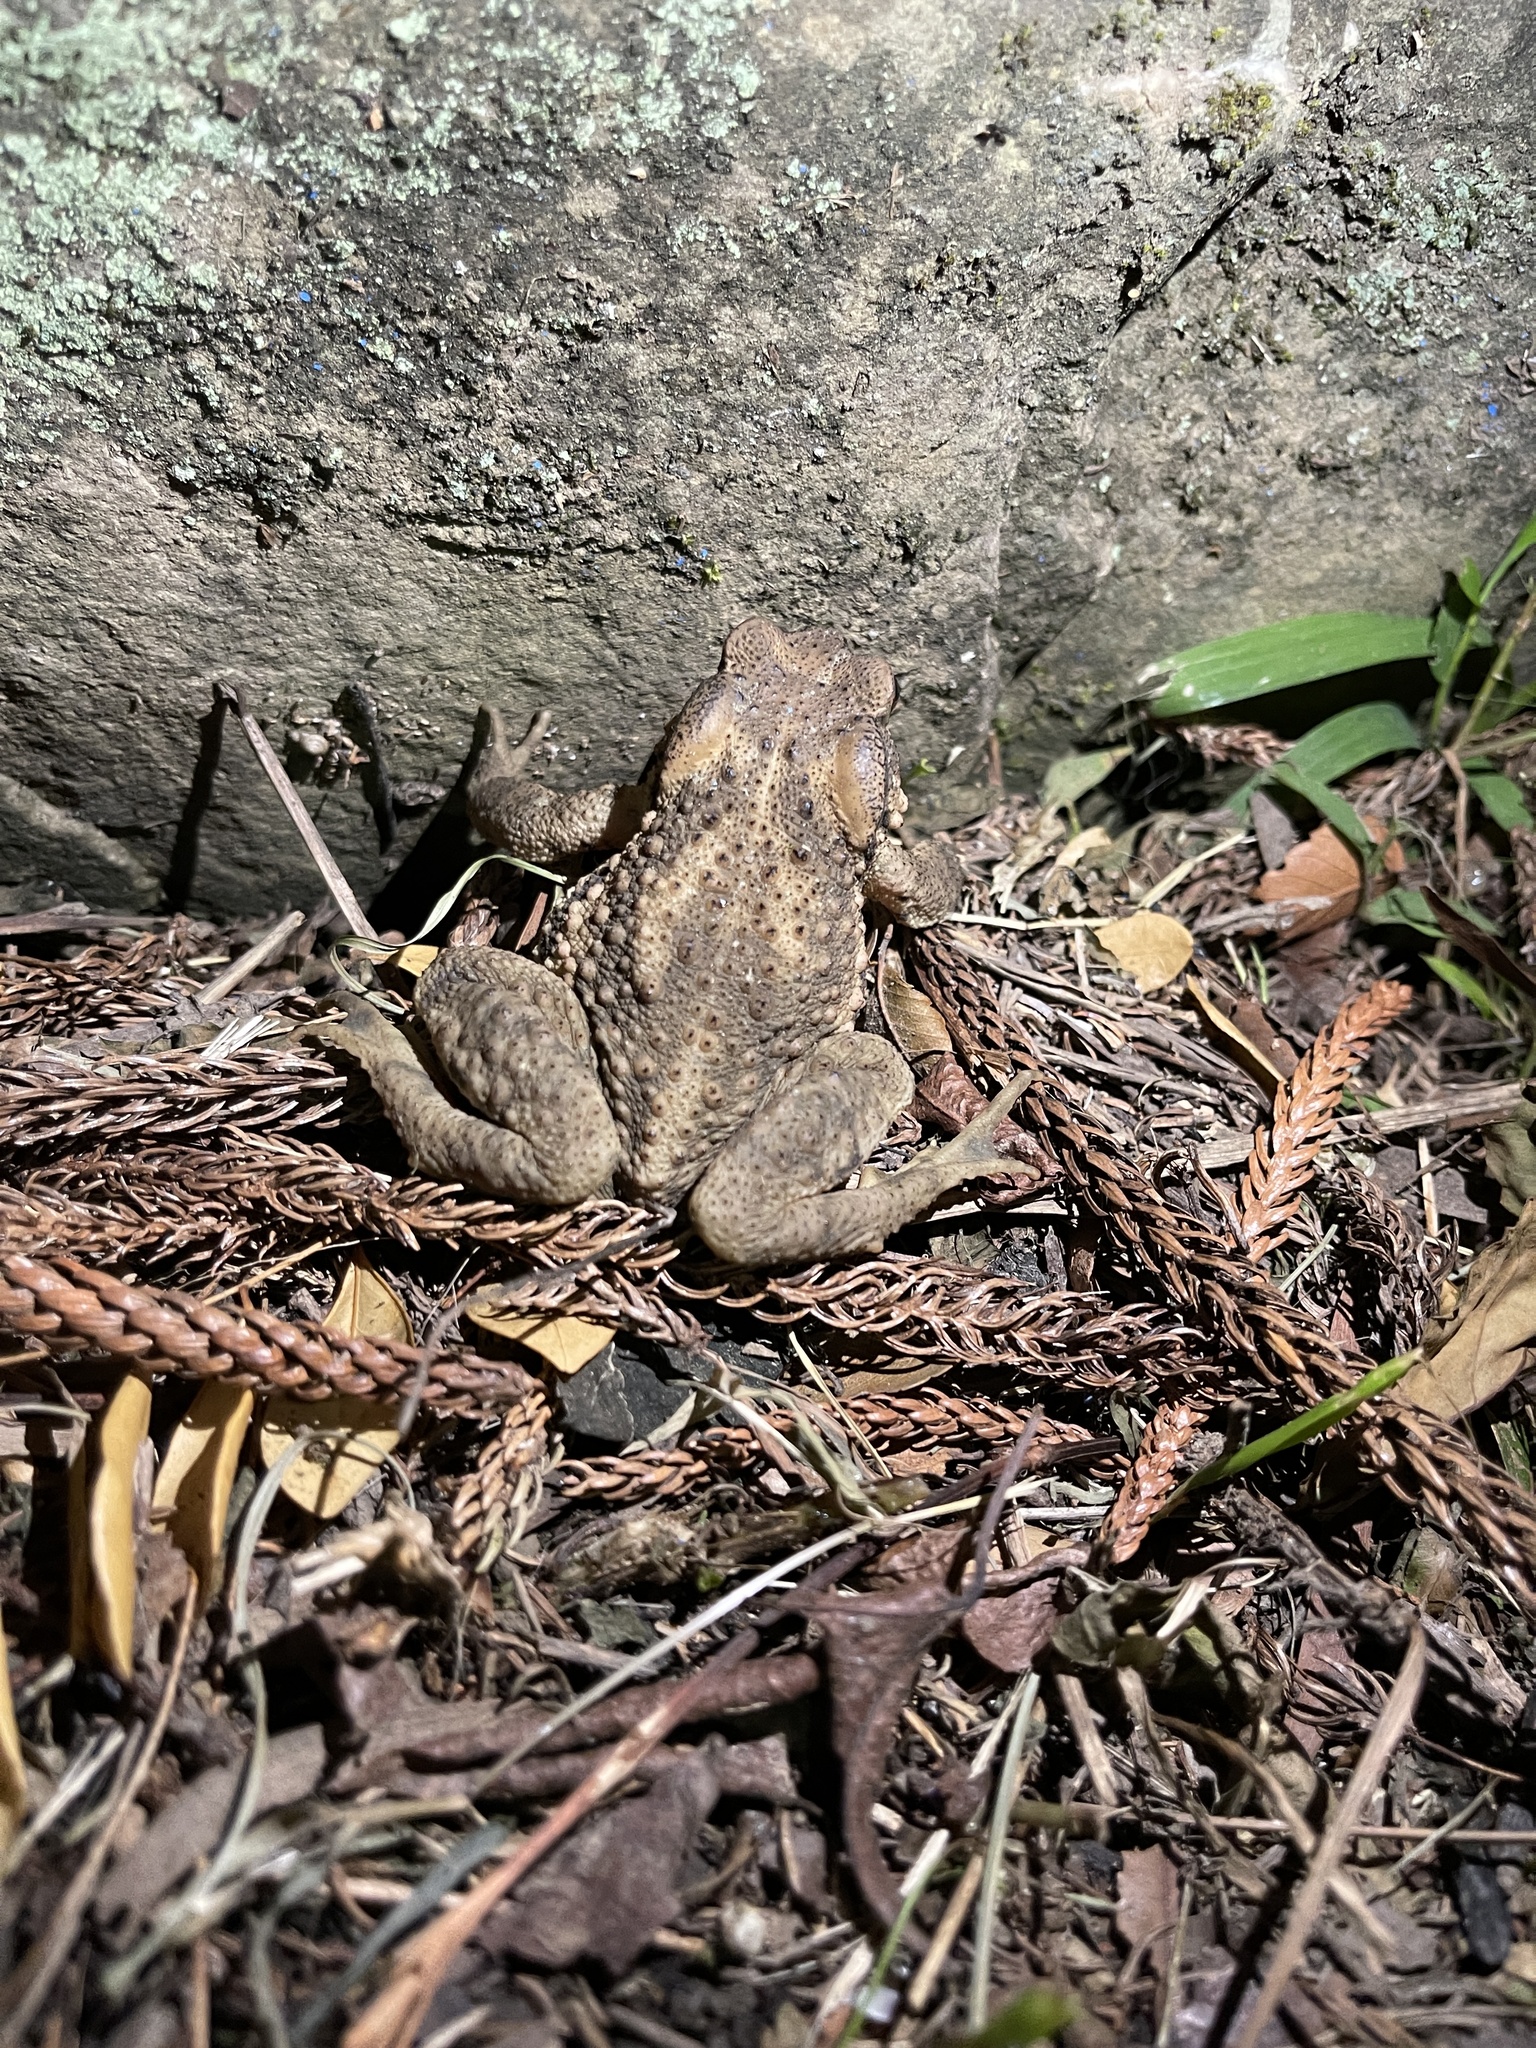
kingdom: Animalia
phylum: Chordata
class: Amphibia
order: Anura
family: Bufonidae
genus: Bufo
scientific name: Bufo bankorensis
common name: Bankor toad
